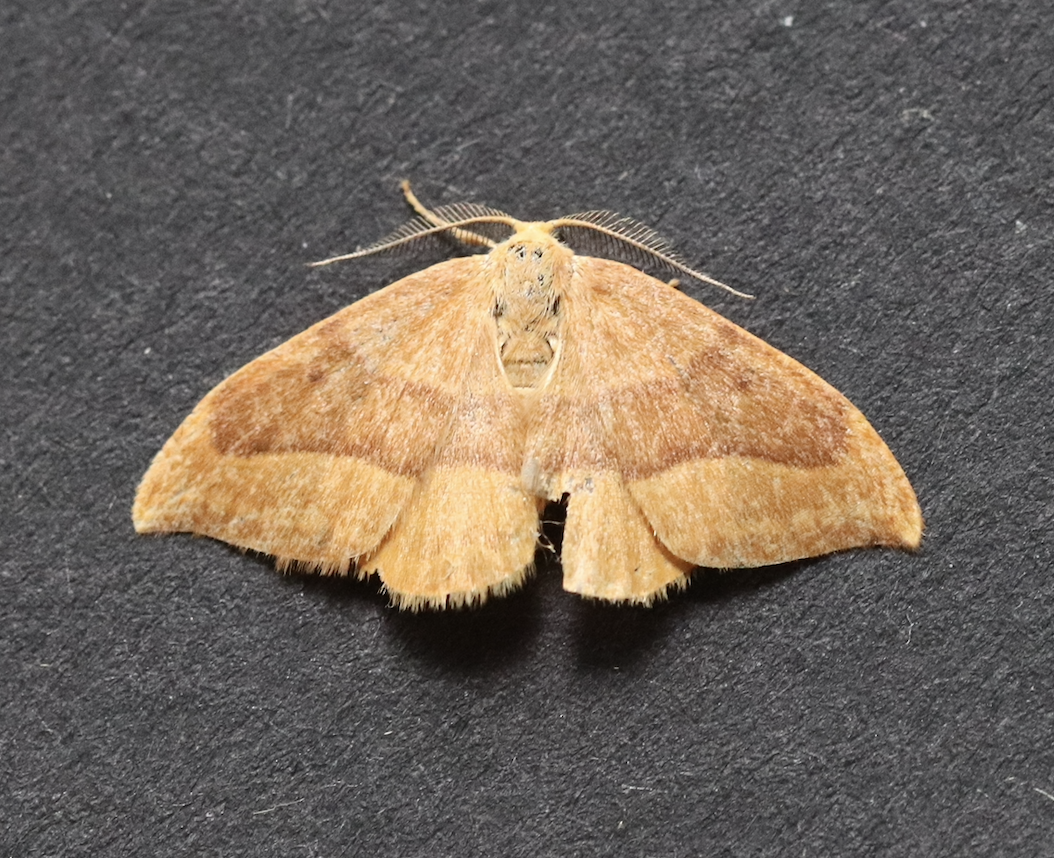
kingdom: Animalia
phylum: Arthropoda
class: Insecta
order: Lepidoptera
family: Drepanidae
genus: Watsonalla
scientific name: Watsonalla cultraria
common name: Barred hook-tip
